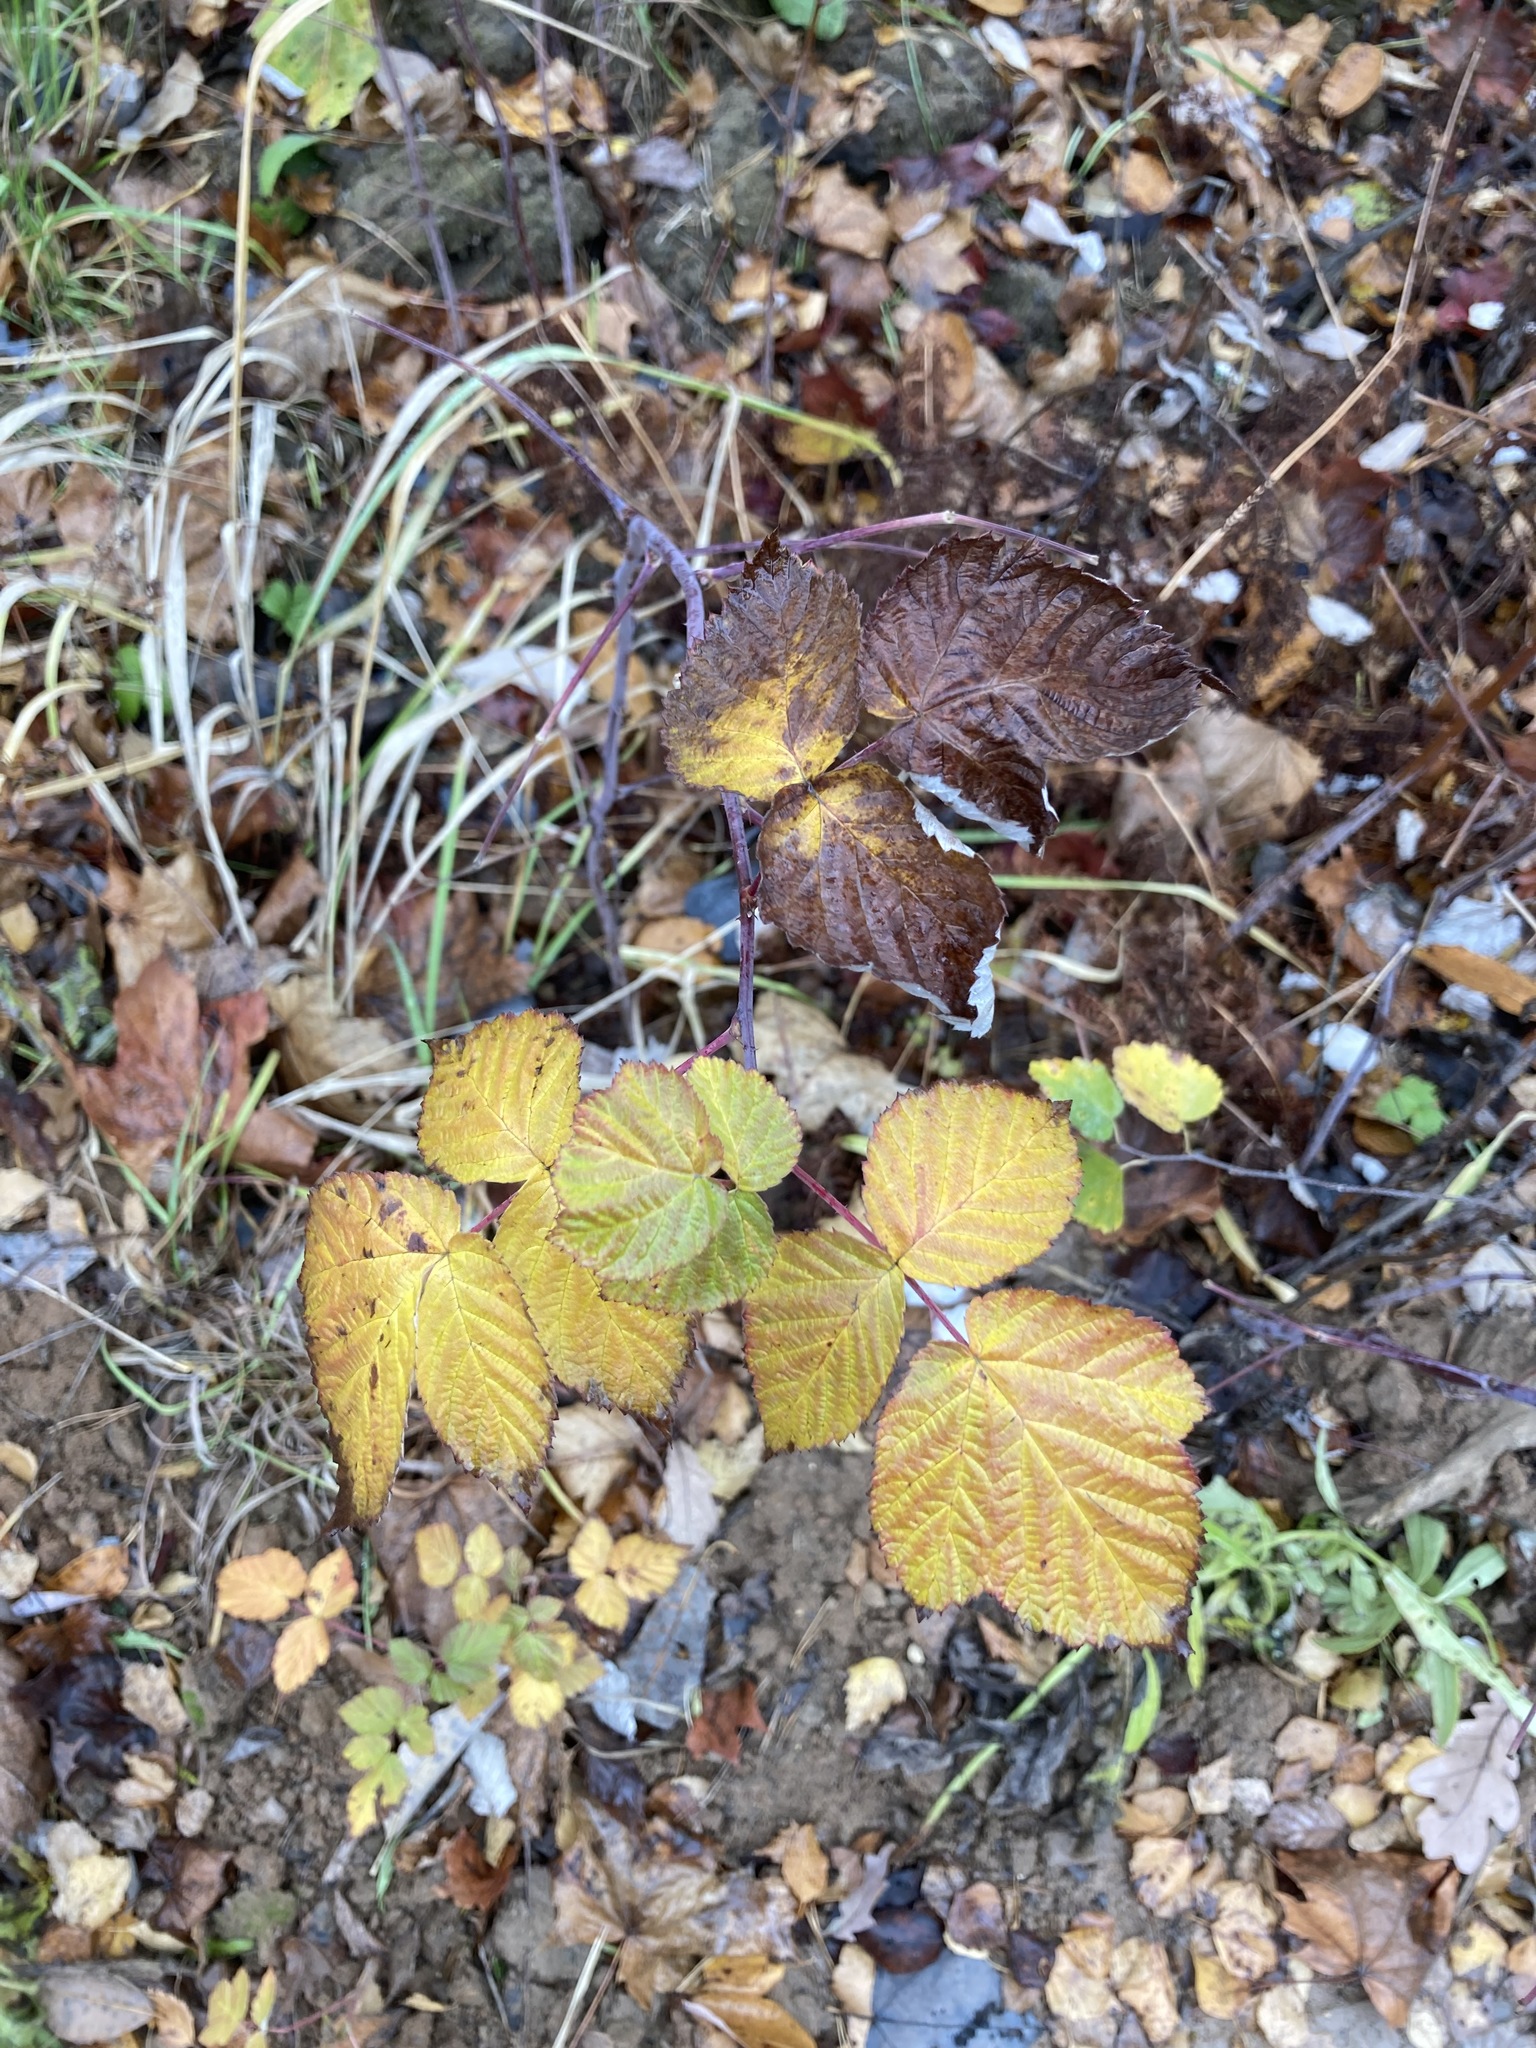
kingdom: Plantae
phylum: Tracheophyta
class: Magnoliopsida
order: Rosales
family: Rosaceae
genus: Rubus
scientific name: Rubus idaeus
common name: Raspberry
